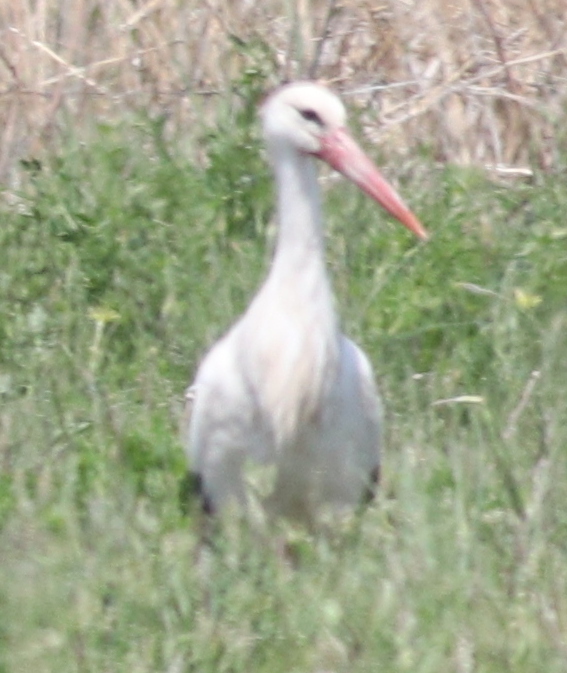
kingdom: Animalia
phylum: Chordata
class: Aves
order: Ciconiiformes
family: Ciconiidae
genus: Ciconia
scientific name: Ciconia ciconia
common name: White stork
